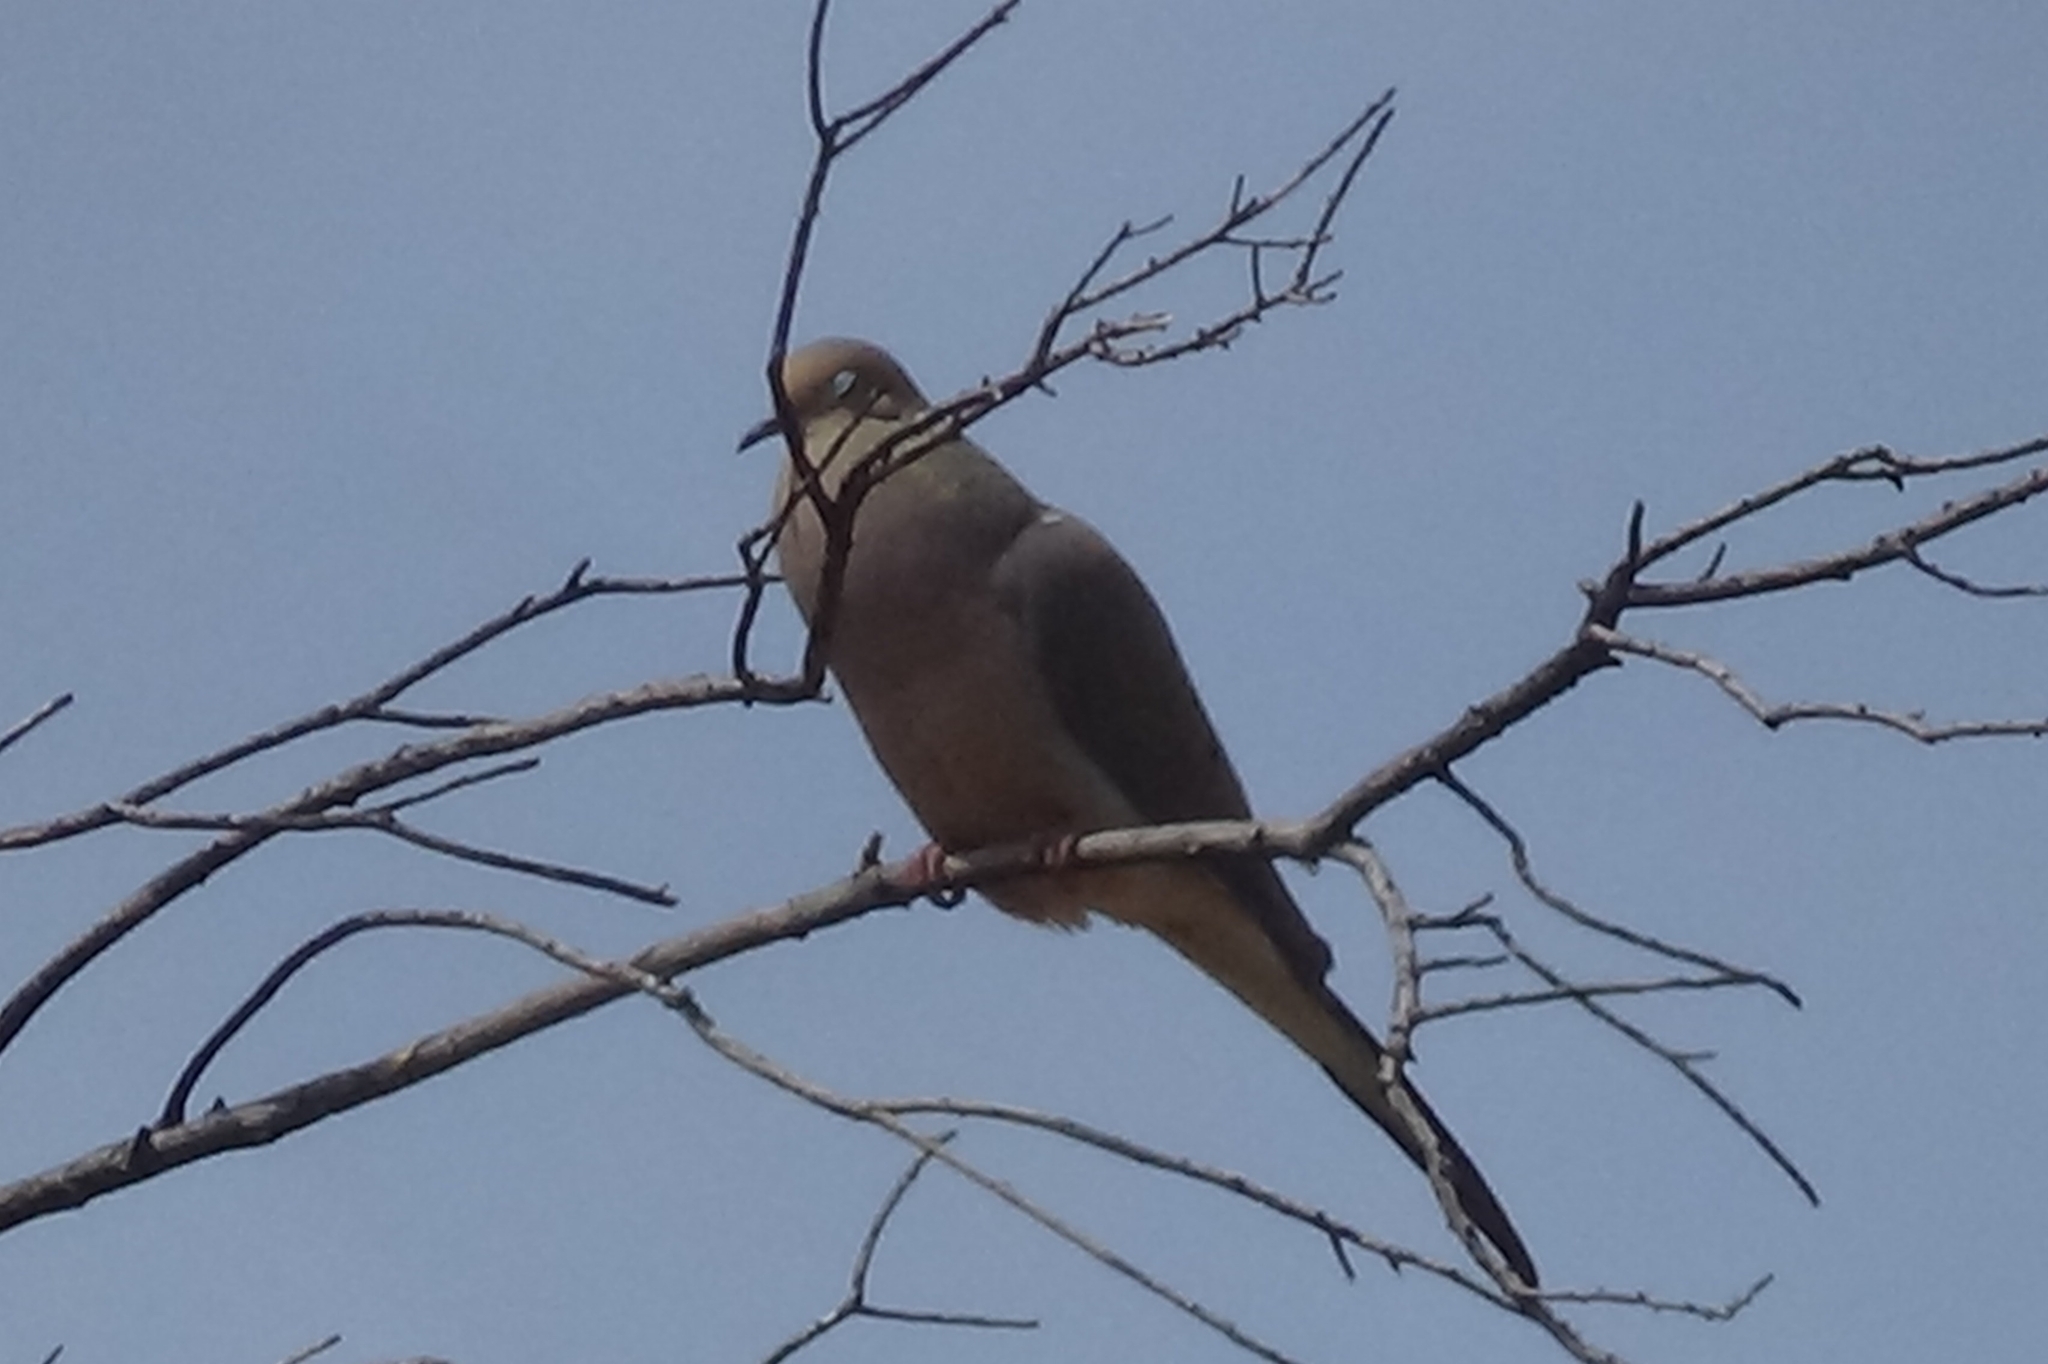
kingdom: Animalia
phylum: Chordata
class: Aves
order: Columbiformes
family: Columbidae
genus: Zenaida
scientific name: Zenaida macroura
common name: Mourning dove
